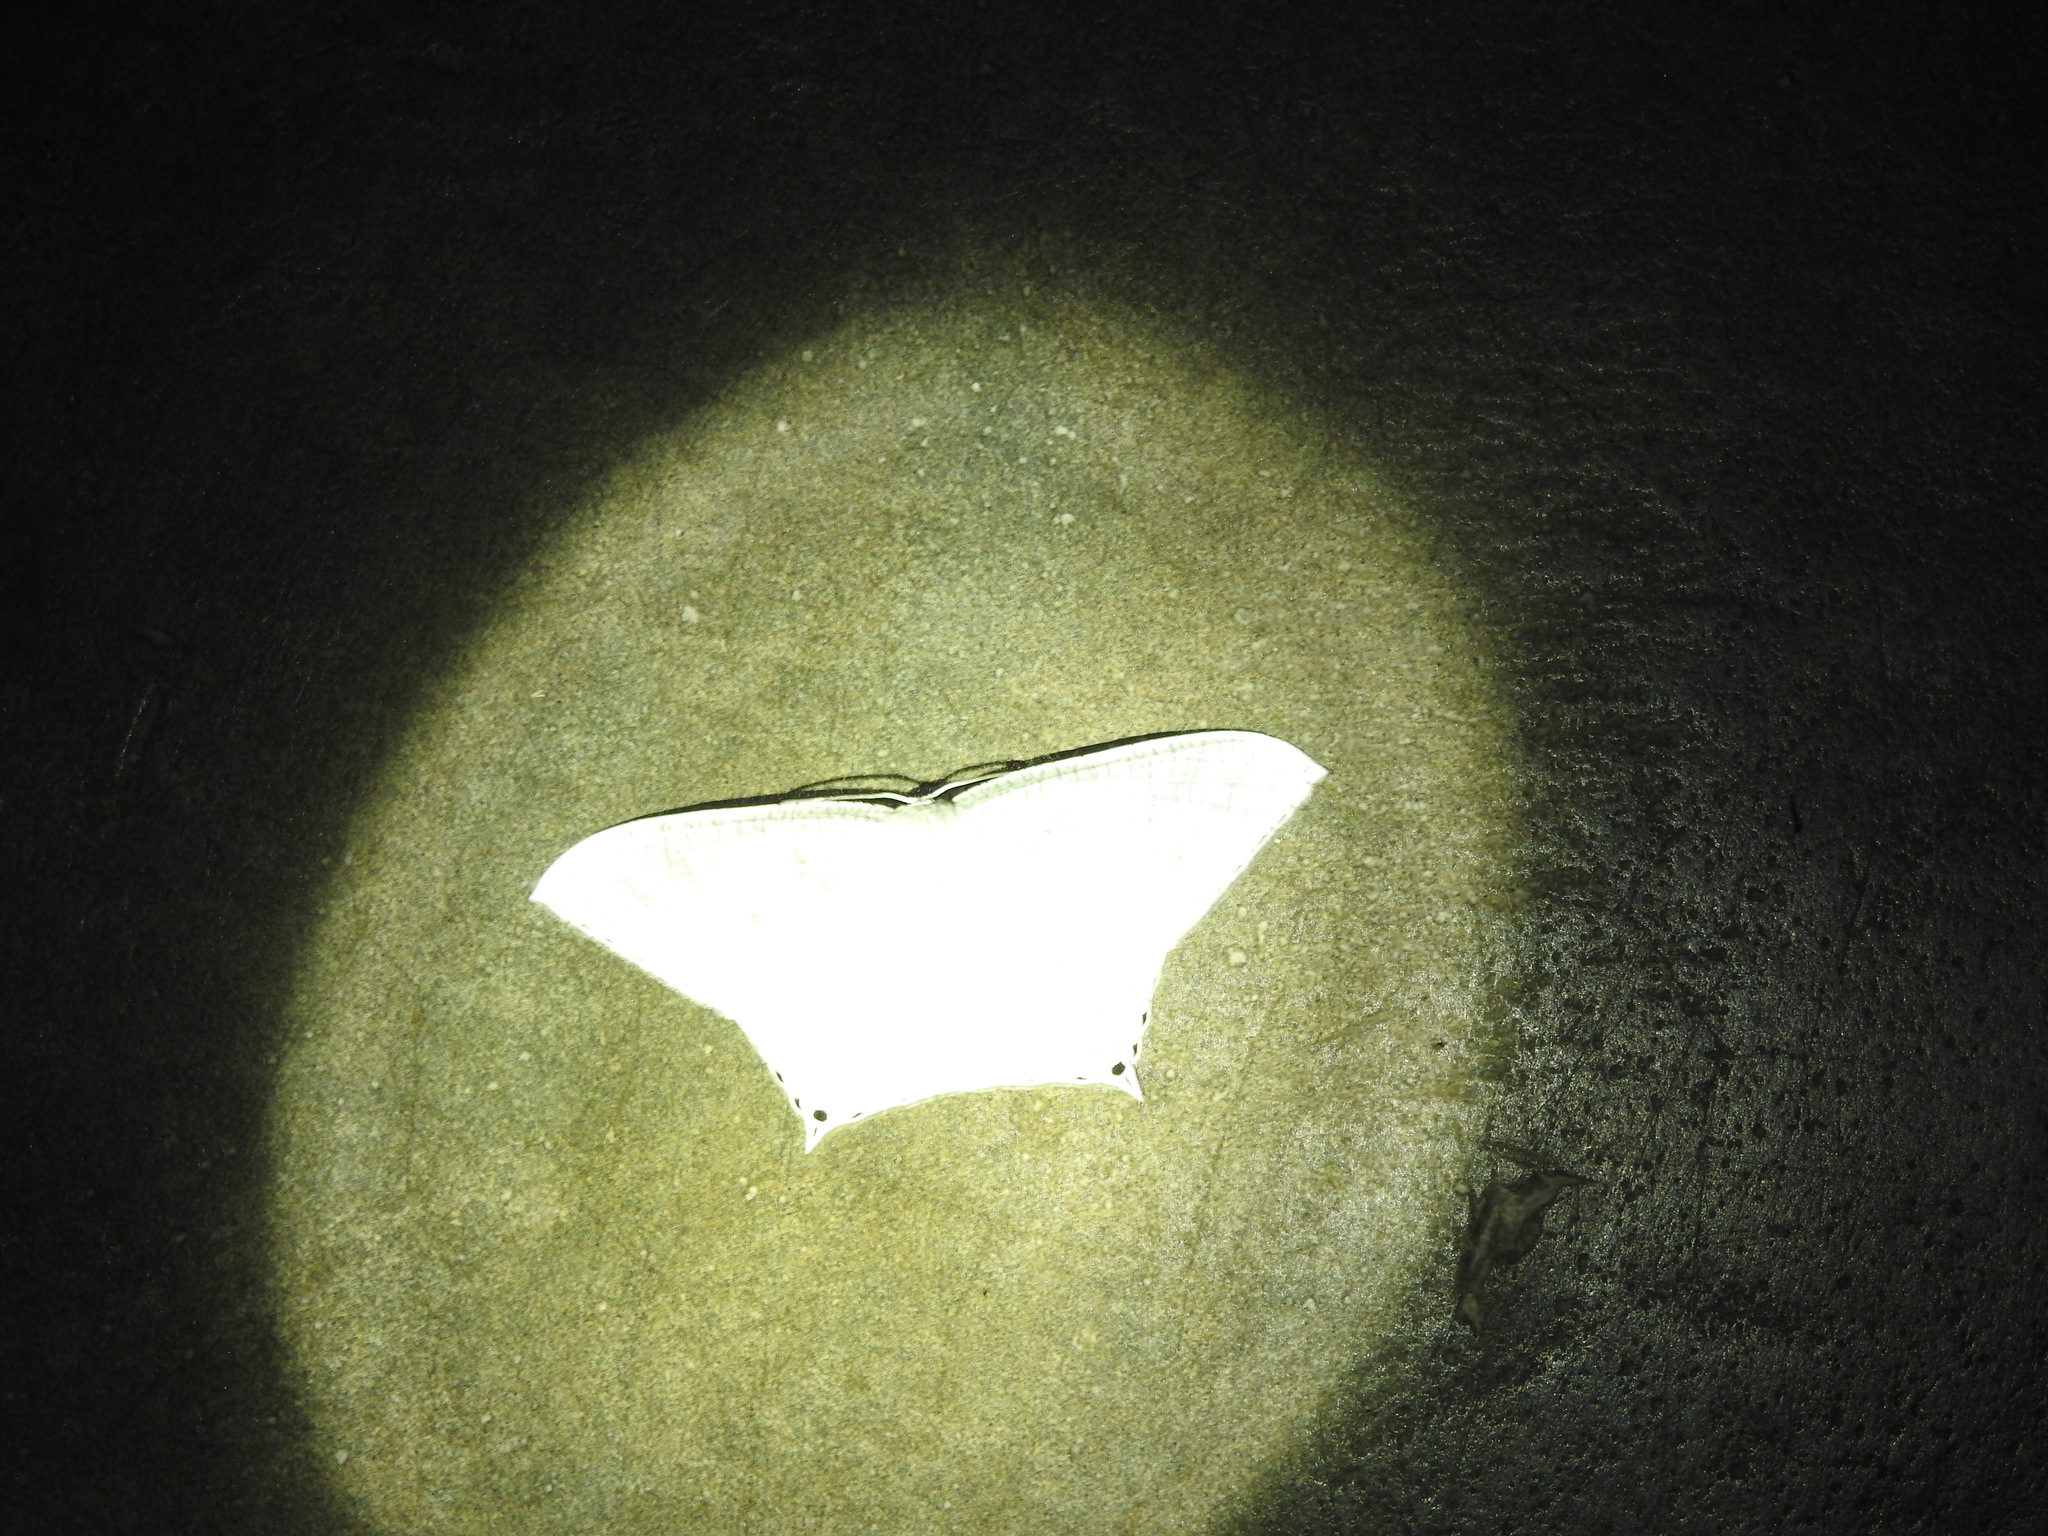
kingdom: Animalia
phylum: Arthropoda
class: Insecta
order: Lepidoptera
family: Uraniidae
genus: Micronia
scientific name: Micronia aculeata
